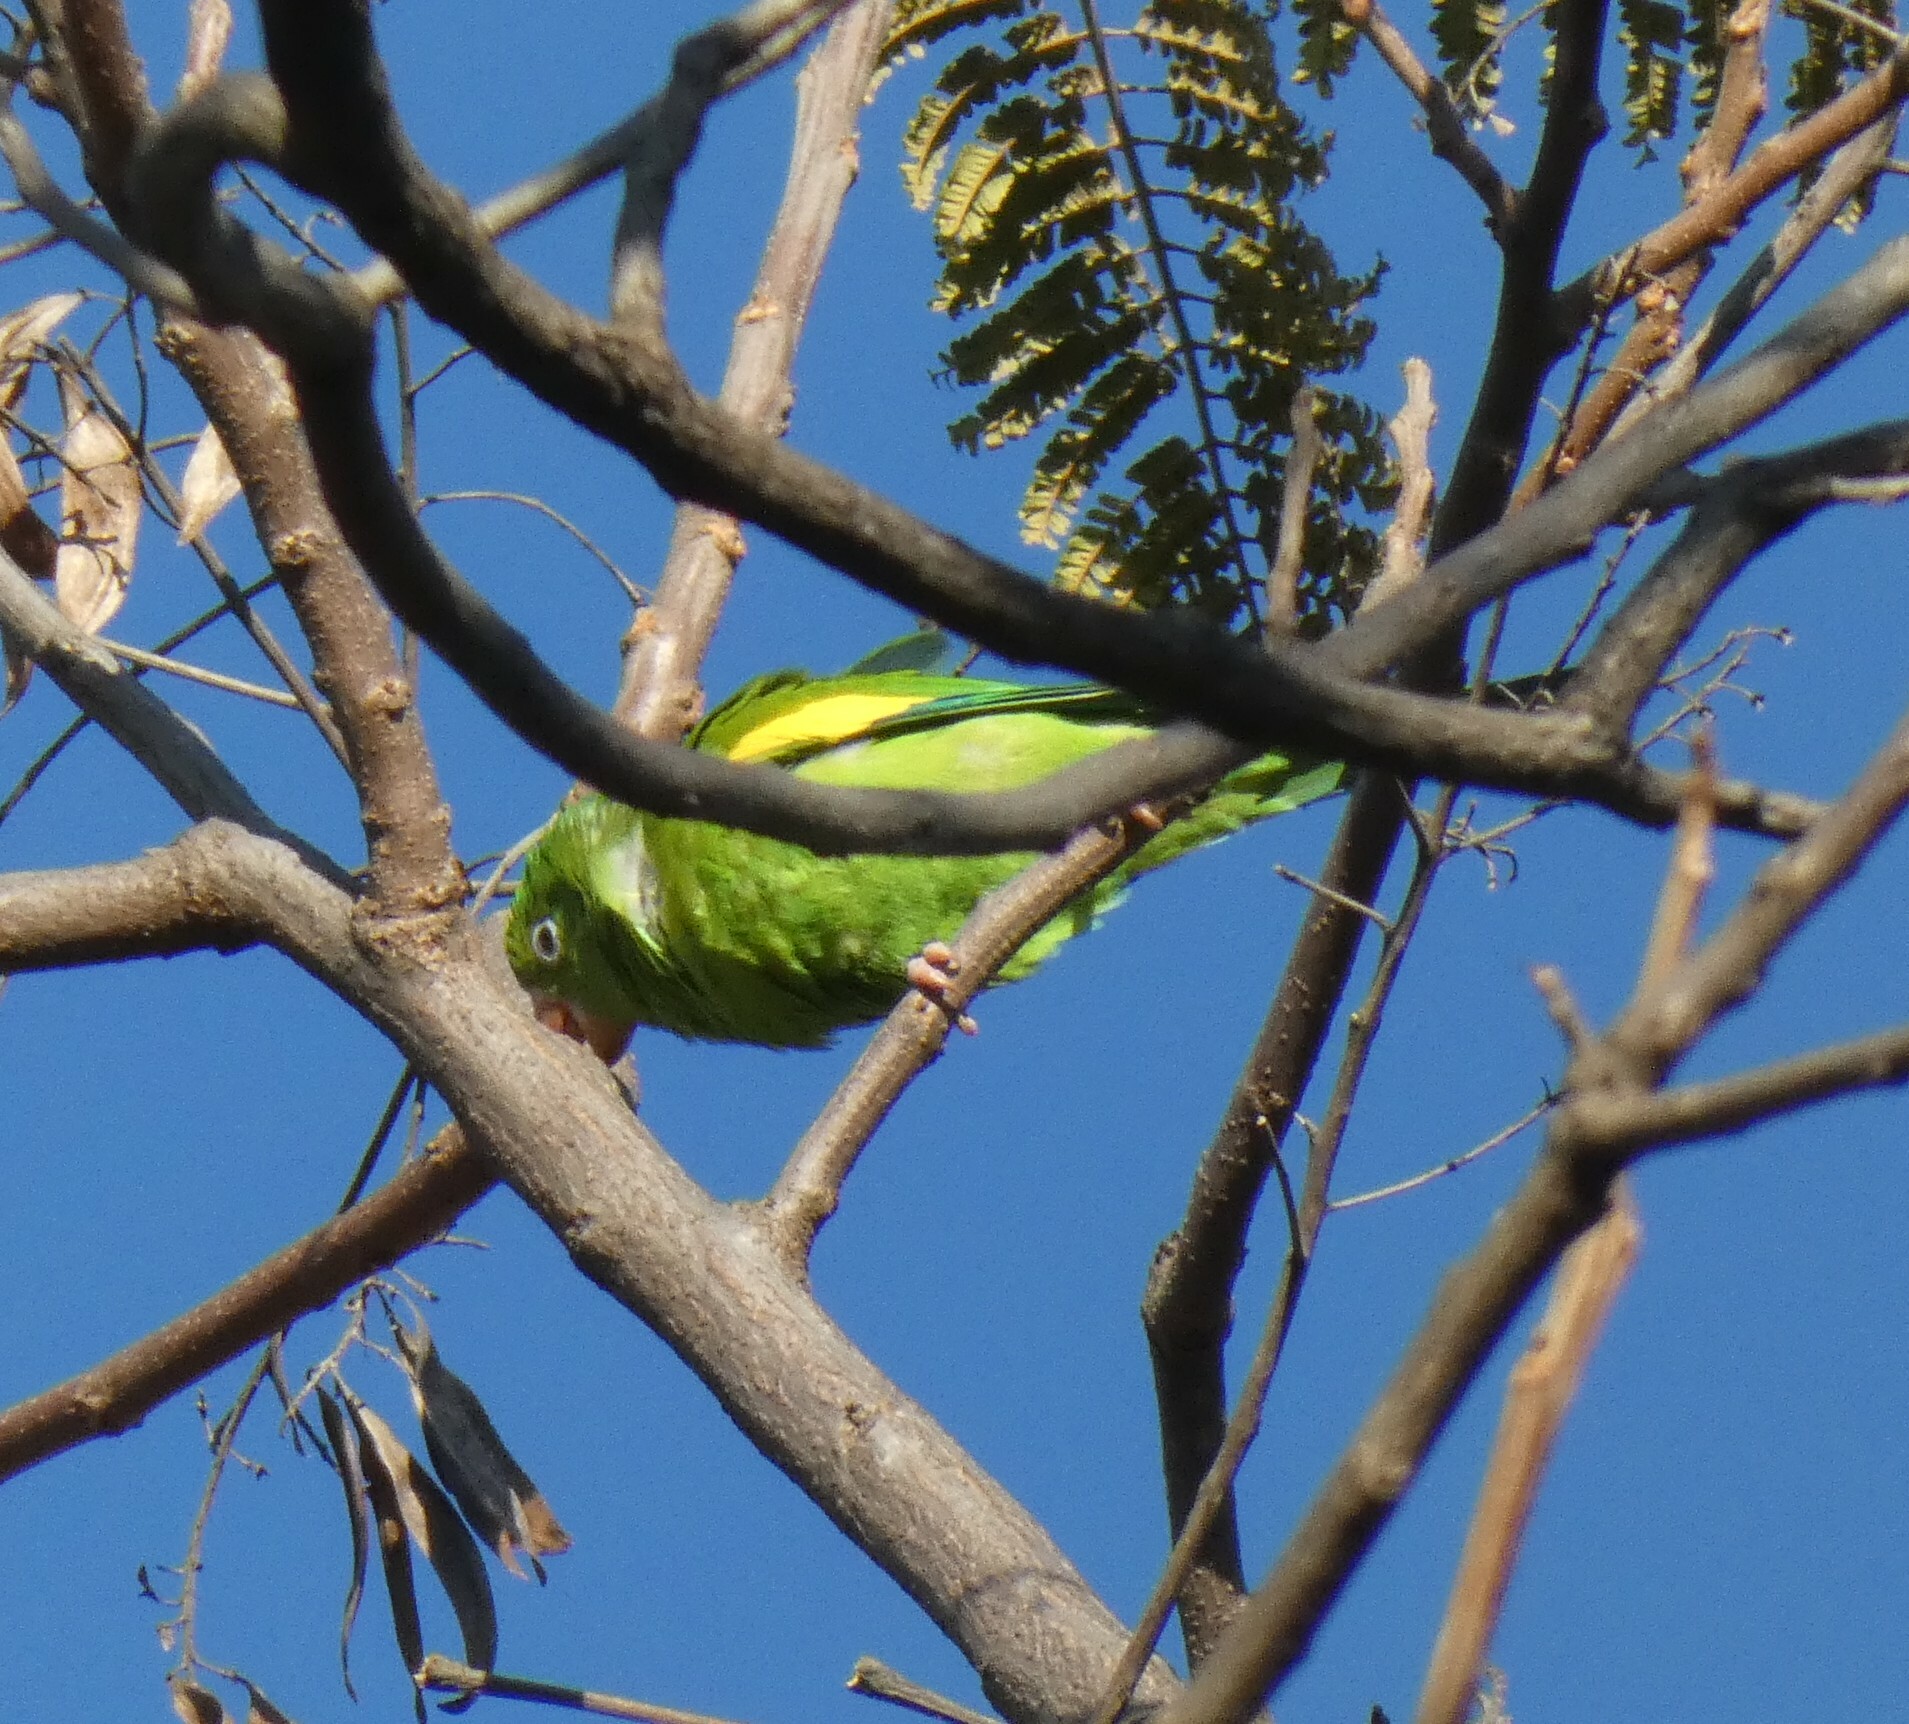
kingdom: Animalia
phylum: Chordata
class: Aves
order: Psittaciformes
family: Psittacidae
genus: Brotogeris
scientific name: Brotogeris chiriri
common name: Yellow-chevroned parakeet
